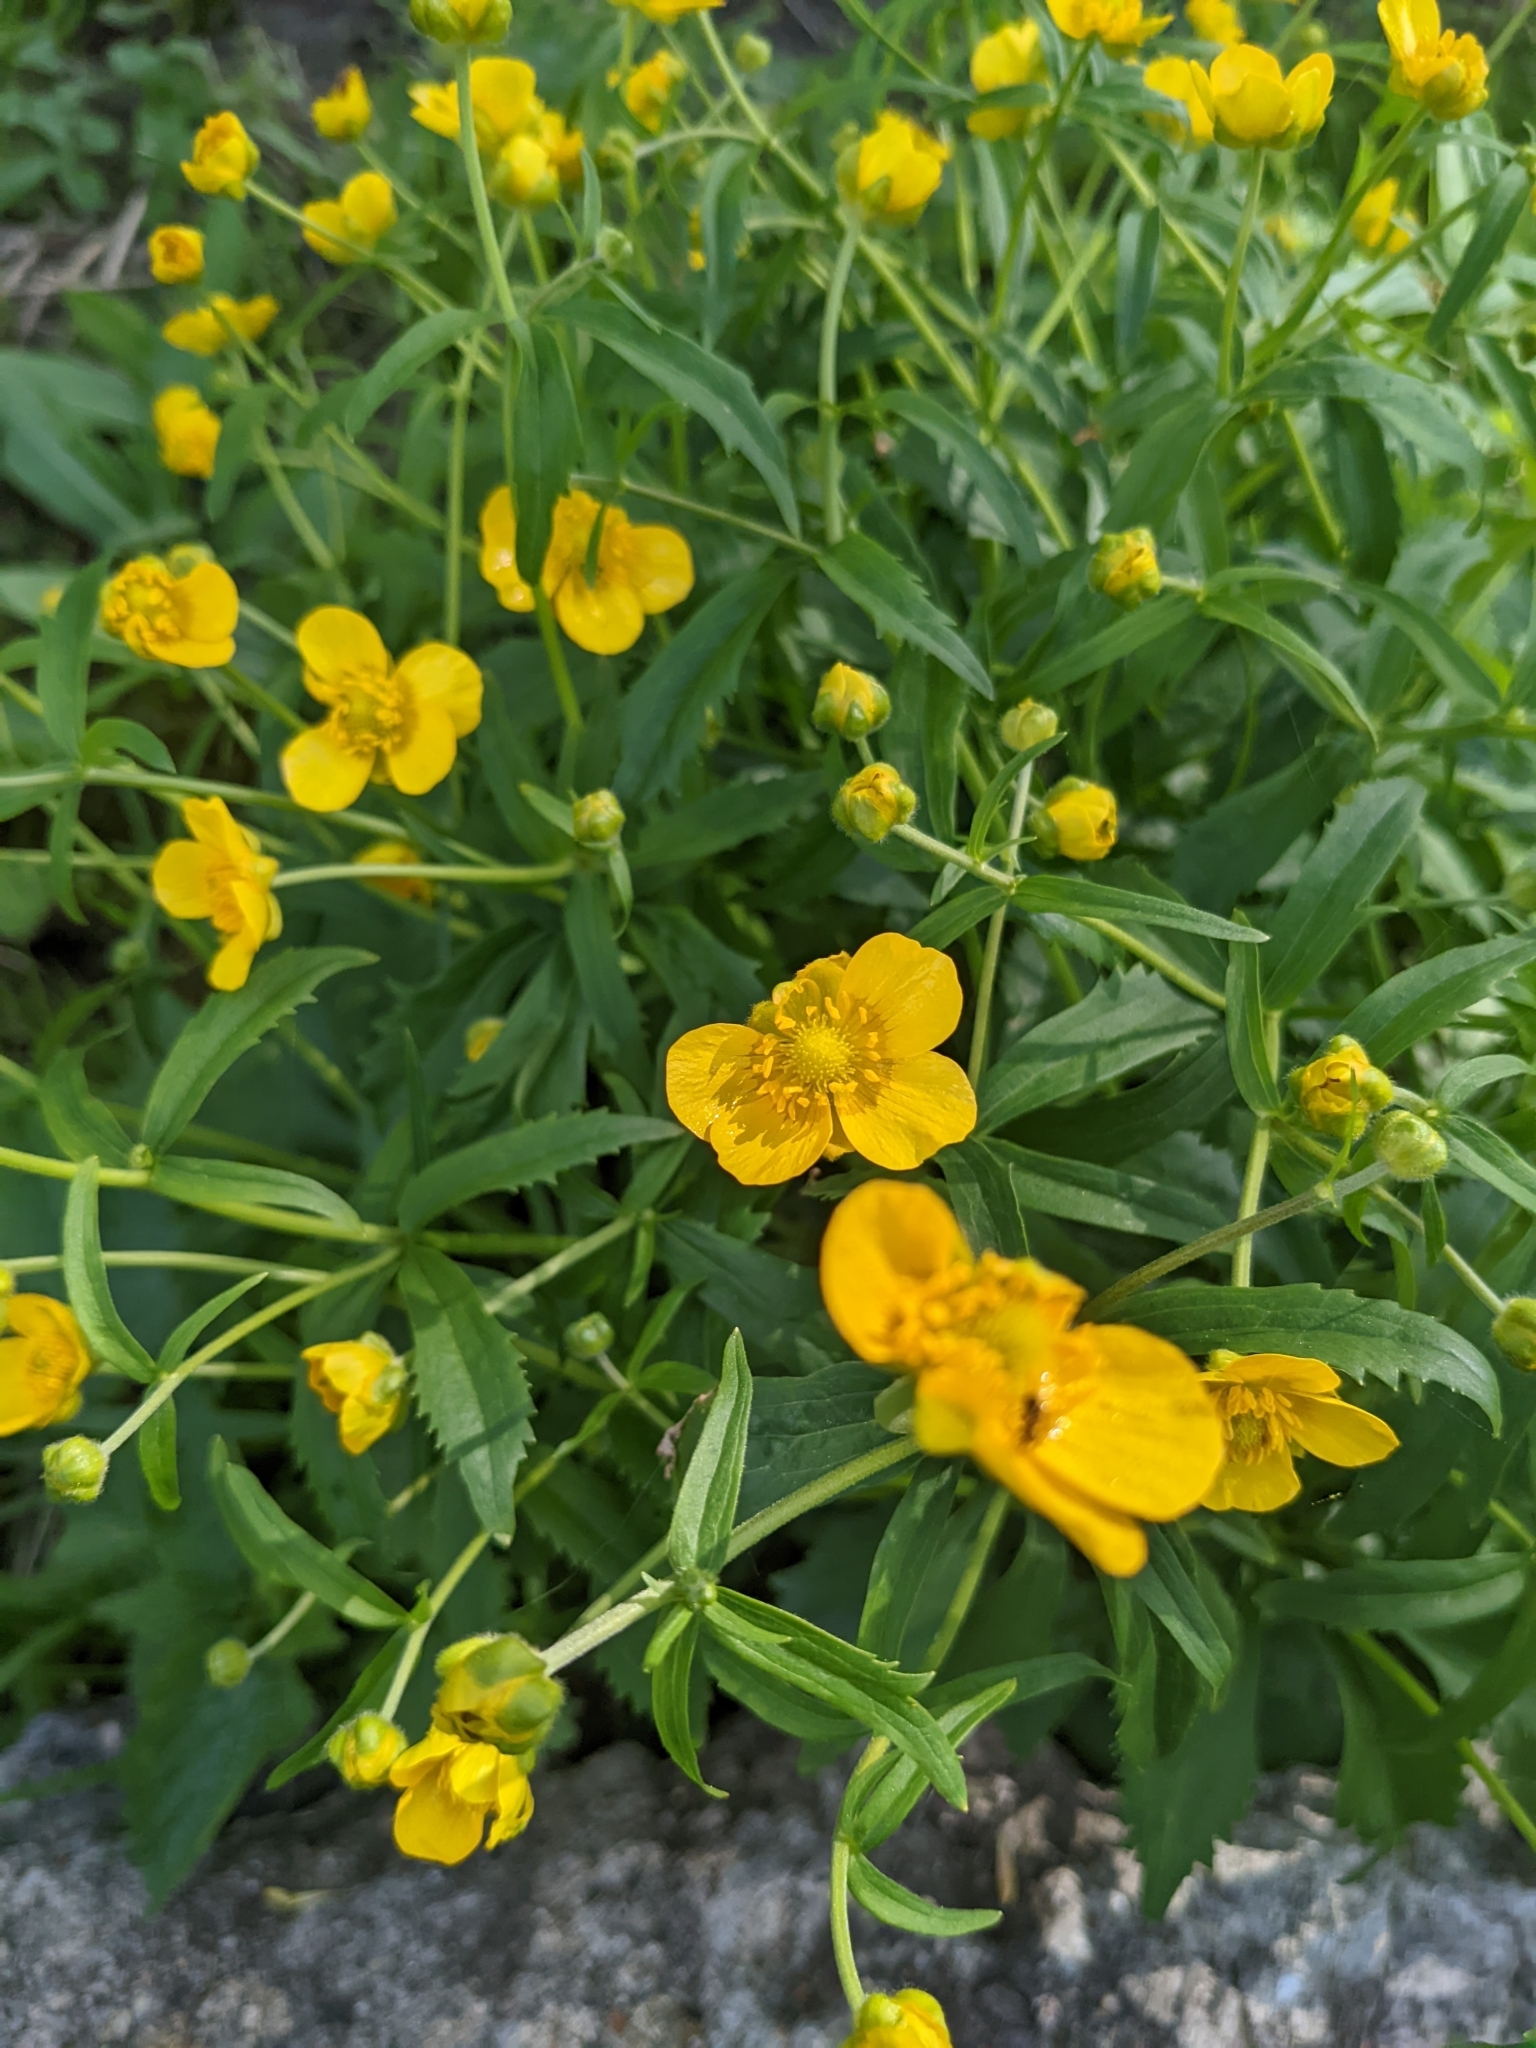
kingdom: Plantae
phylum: Tracheophyta
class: Magnoliopsida
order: Ranunculales
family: Ranunculaceae
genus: Ranunculus
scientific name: Ranunculus cassubicus
